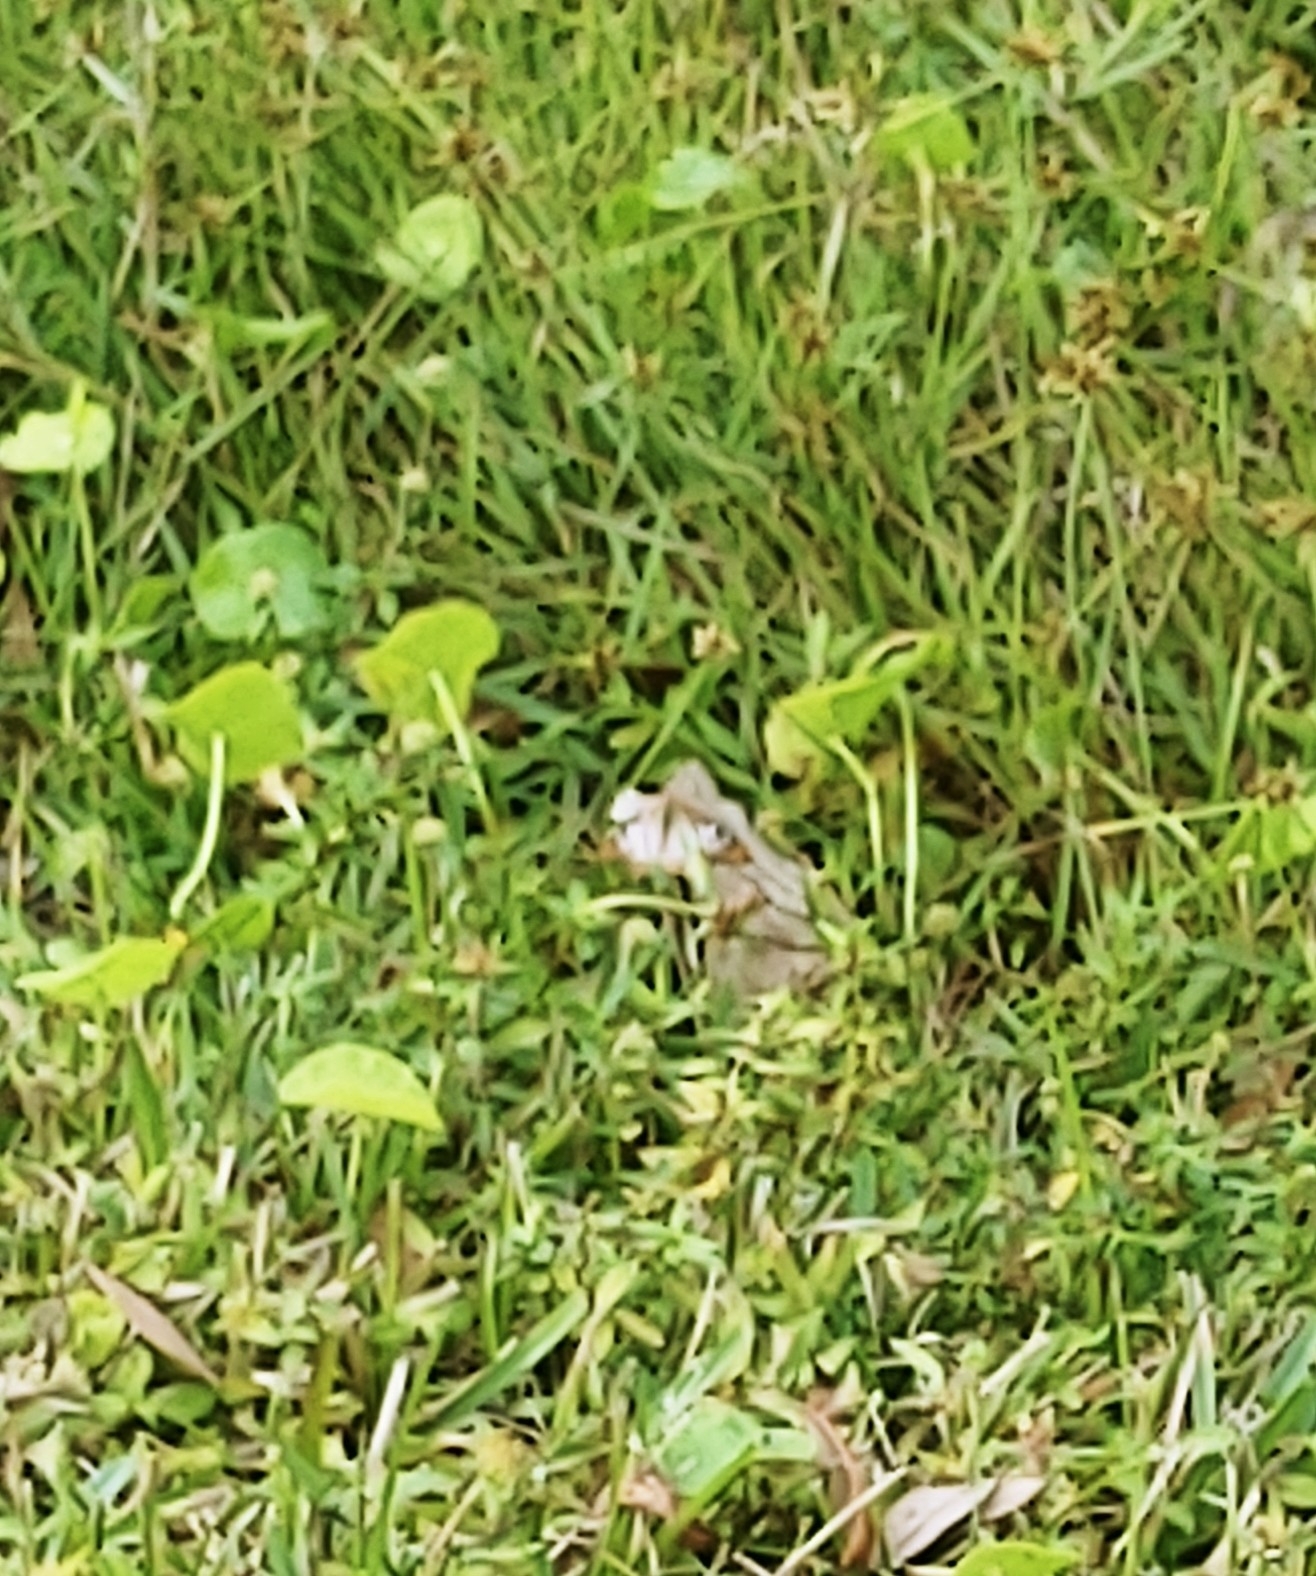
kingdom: Animalia
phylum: Arthropoda
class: Insecta
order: Lepidoptera
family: Nymphalidae
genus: Anartia
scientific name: Anartia jatrophae
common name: White peacock
